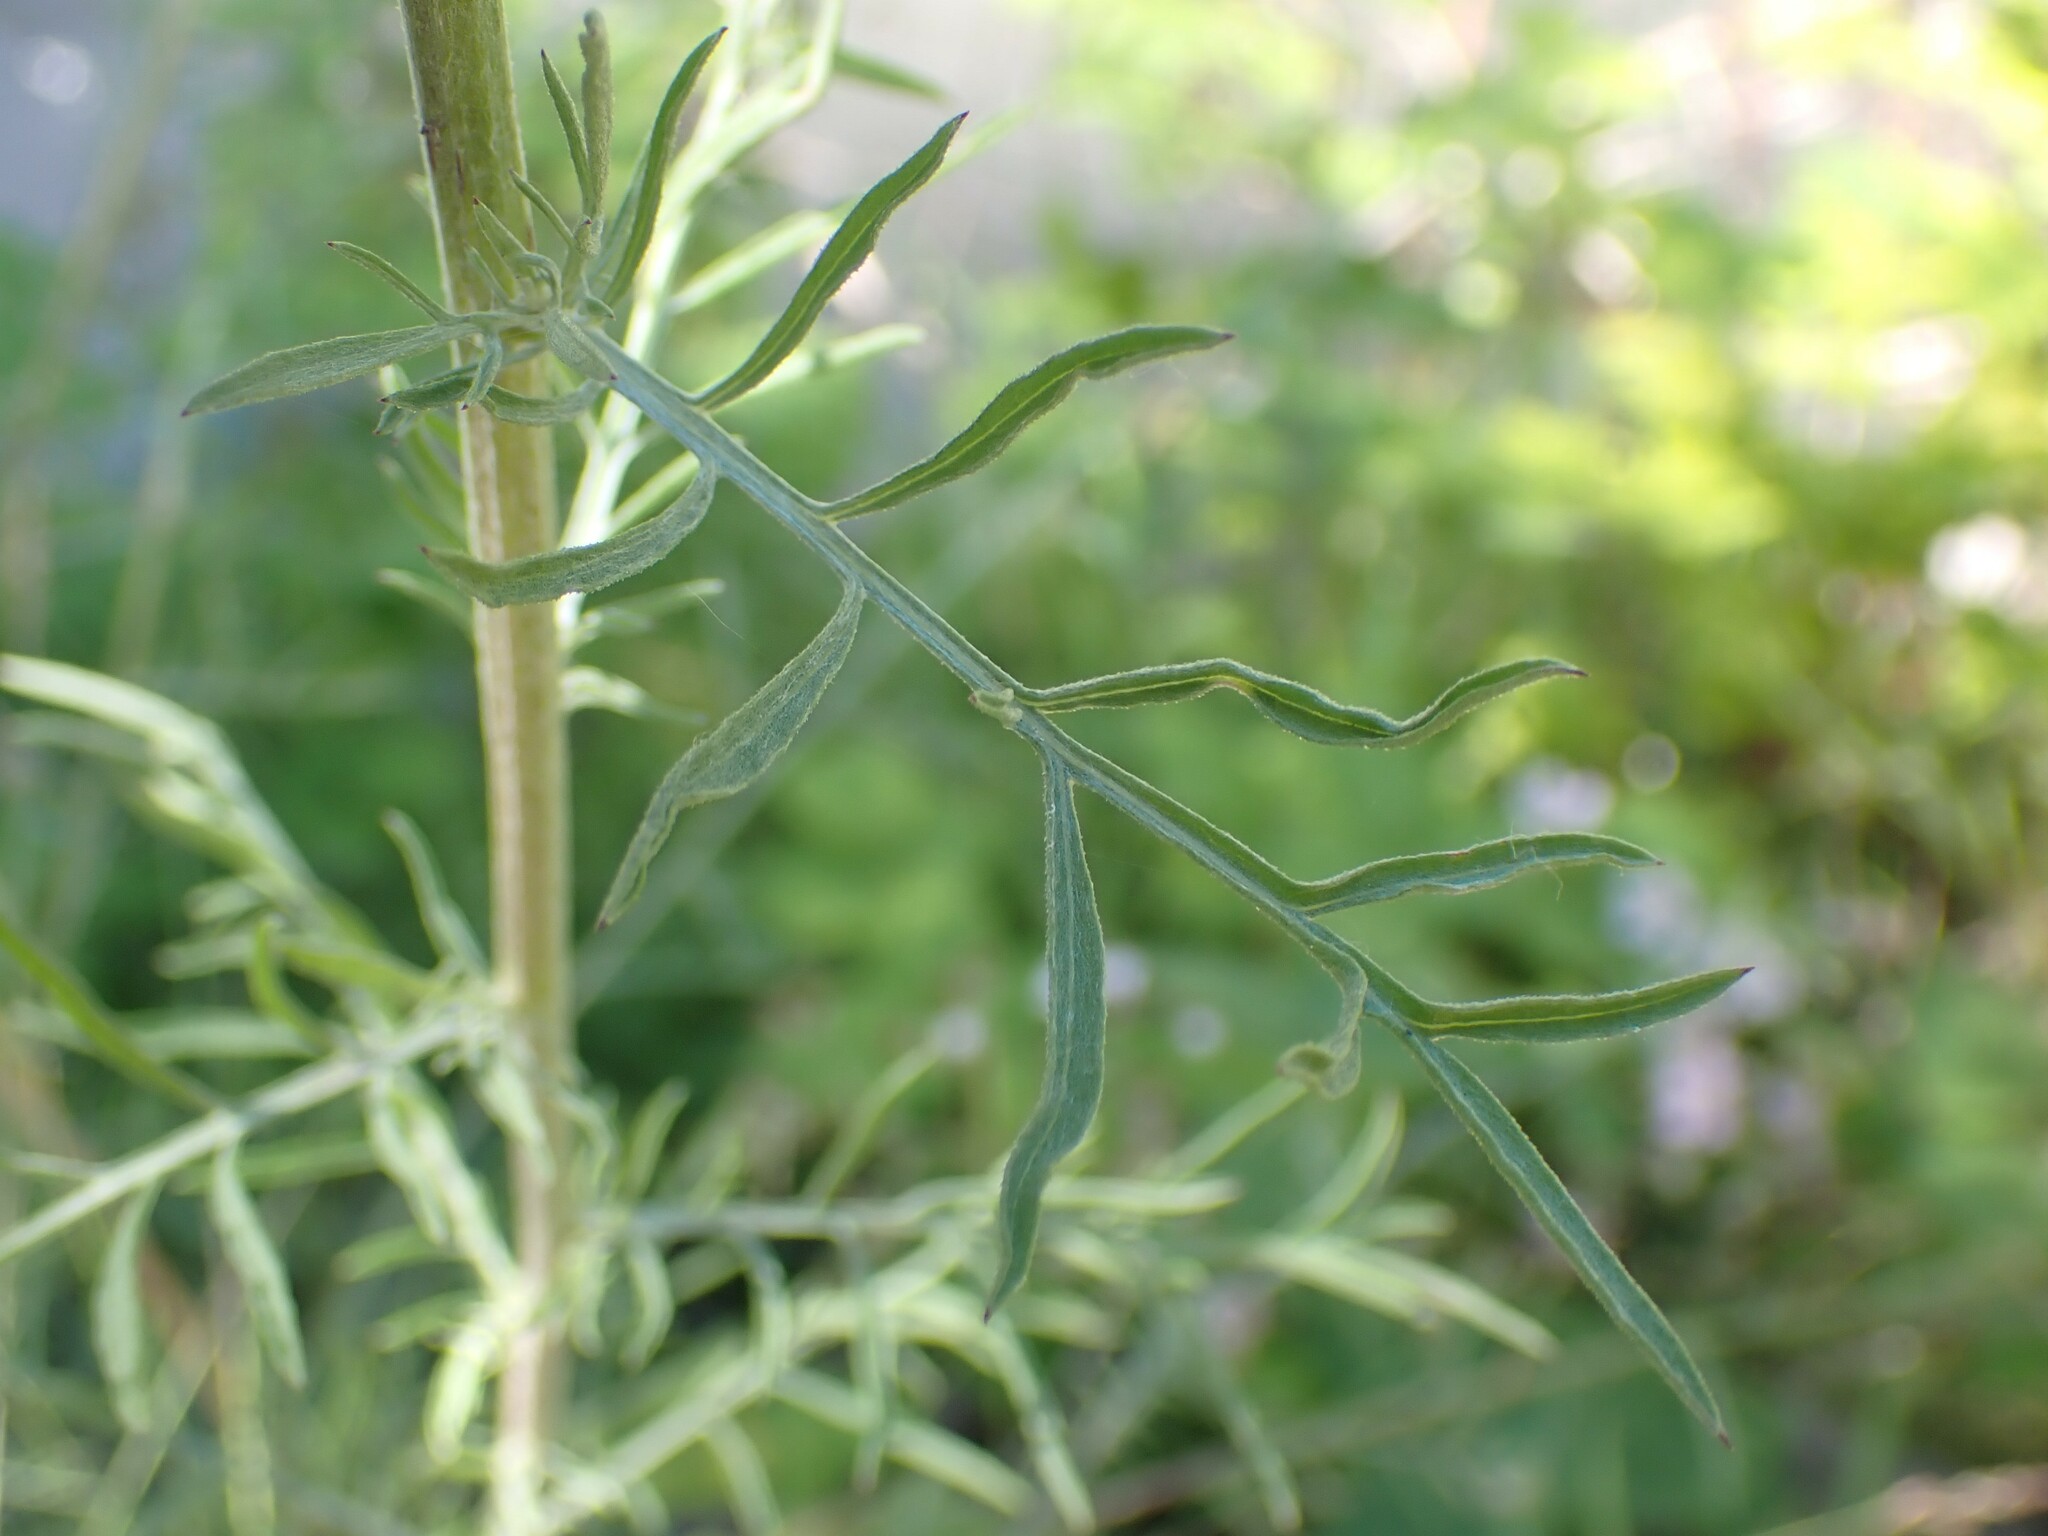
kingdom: Plantae
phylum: Tracheophyta
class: Magnoliopsida
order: Asterales
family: Asteraceae
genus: Centaurea
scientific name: Centaurea stoebe
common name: Spotted knapweed
